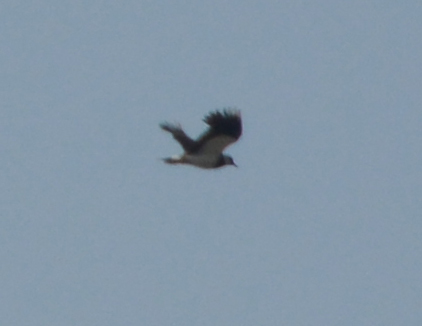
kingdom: Animalia
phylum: Chordata
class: Aves
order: Charadriiformes
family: Charadriidae
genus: Vanellus
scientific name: Vanellus vanellus
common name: Northern lapwing
